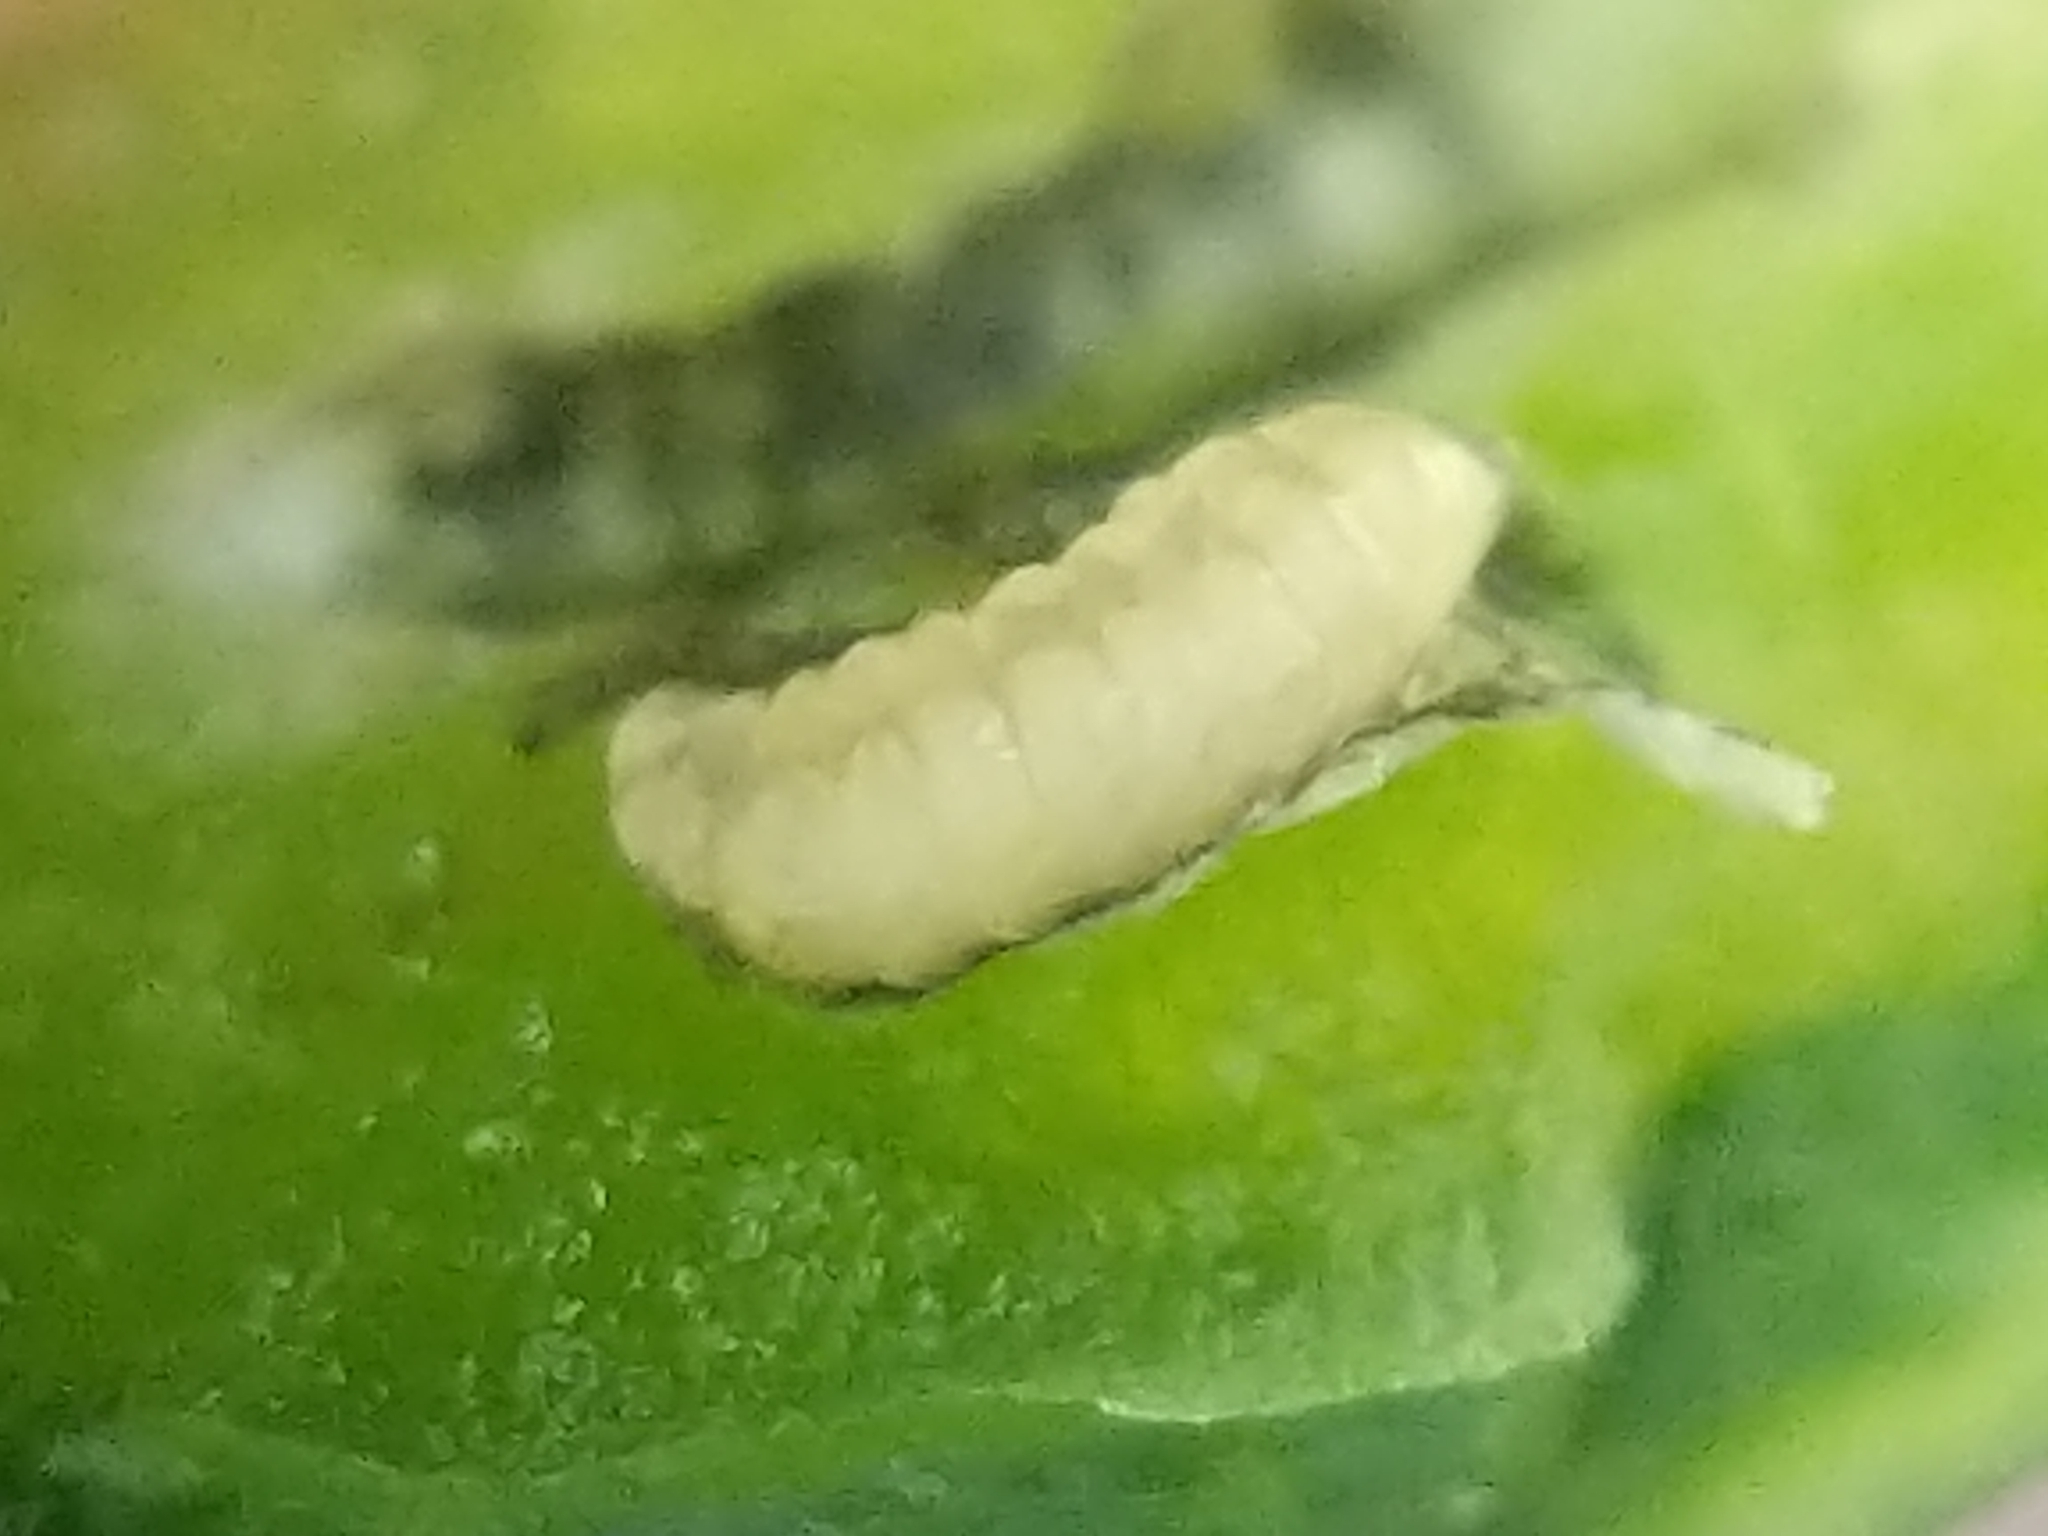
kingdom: Animalia
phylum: Arthropoda
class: Insecta
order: Diptera
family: Cecidomyiidae
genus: Neolasioptera
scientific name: Neolasioptera impatientifolia
